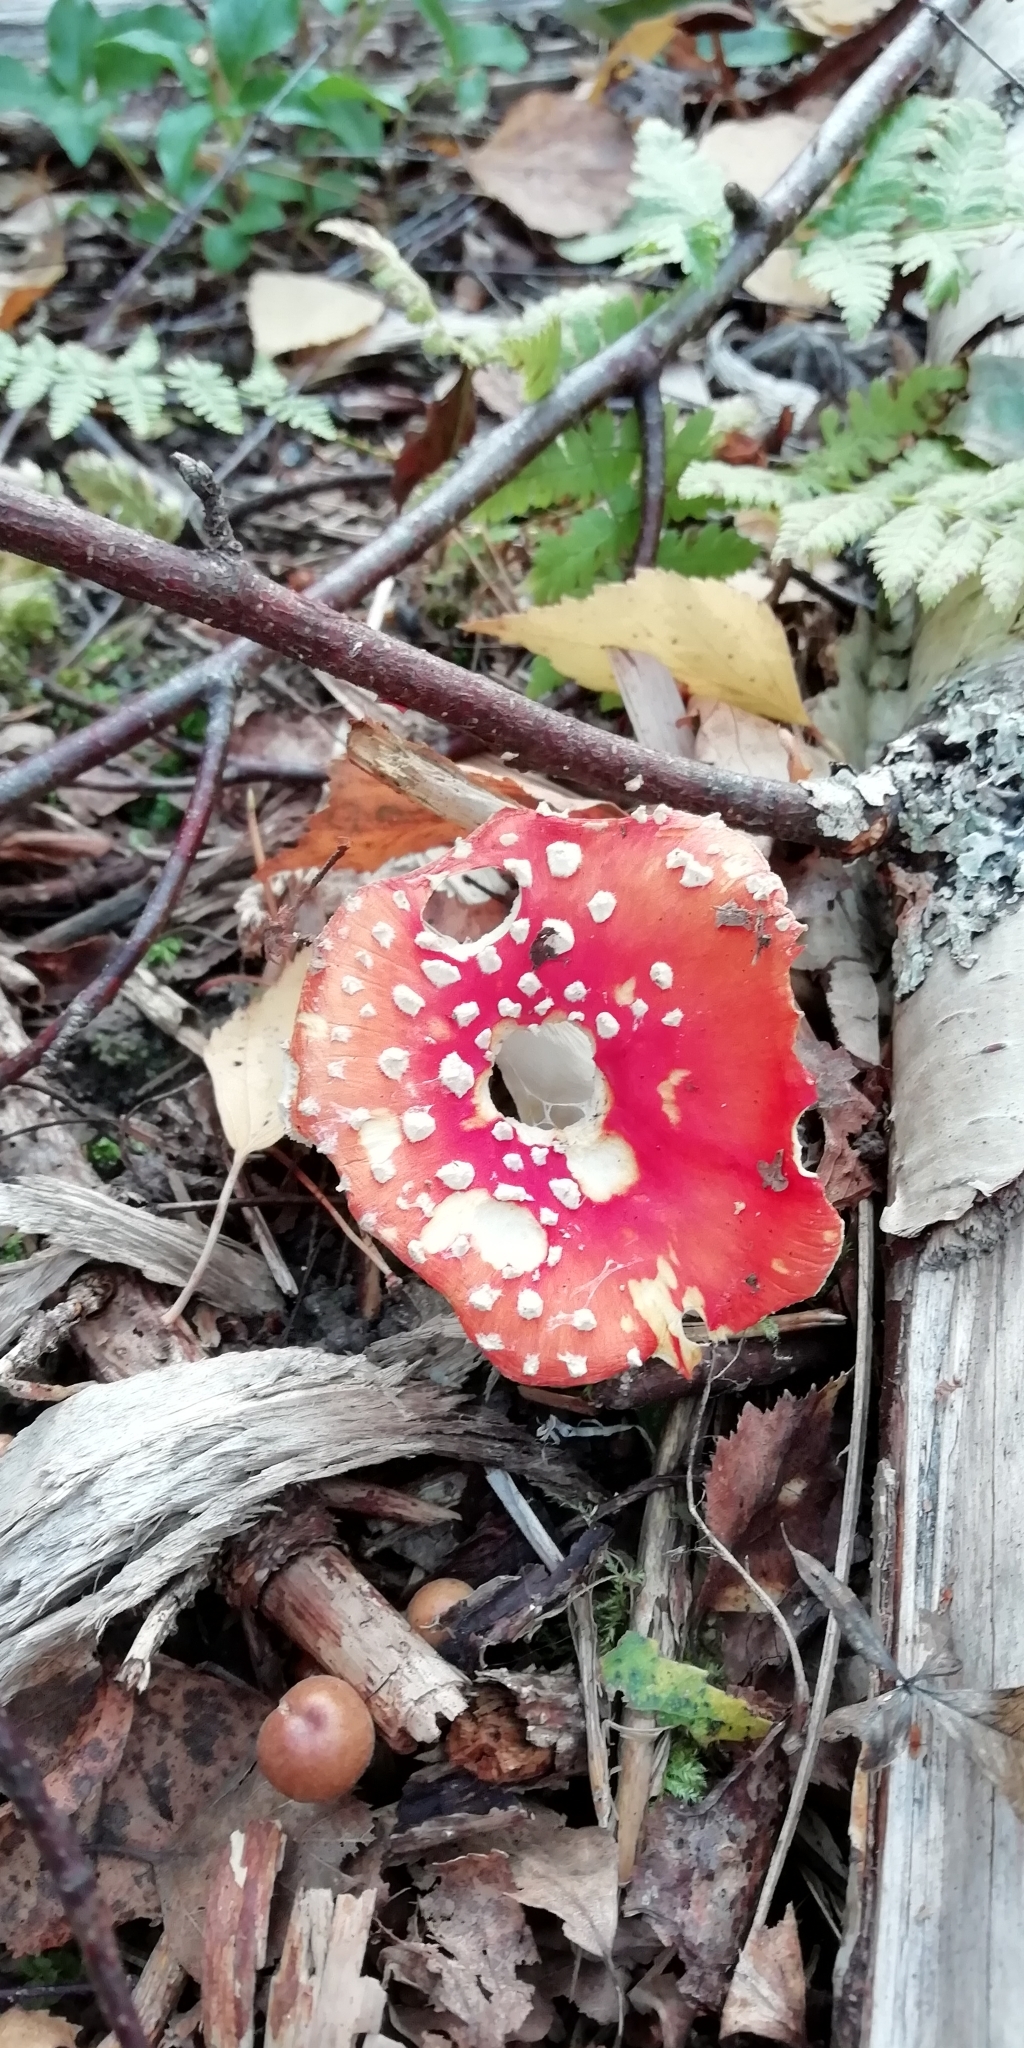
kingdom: Fungi
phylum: Basidiomycota
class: Agaricomycetes
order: Agaricales
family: Amanitaceae
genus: Amanita
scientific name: Amanita muscaria
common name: Fly agaric
